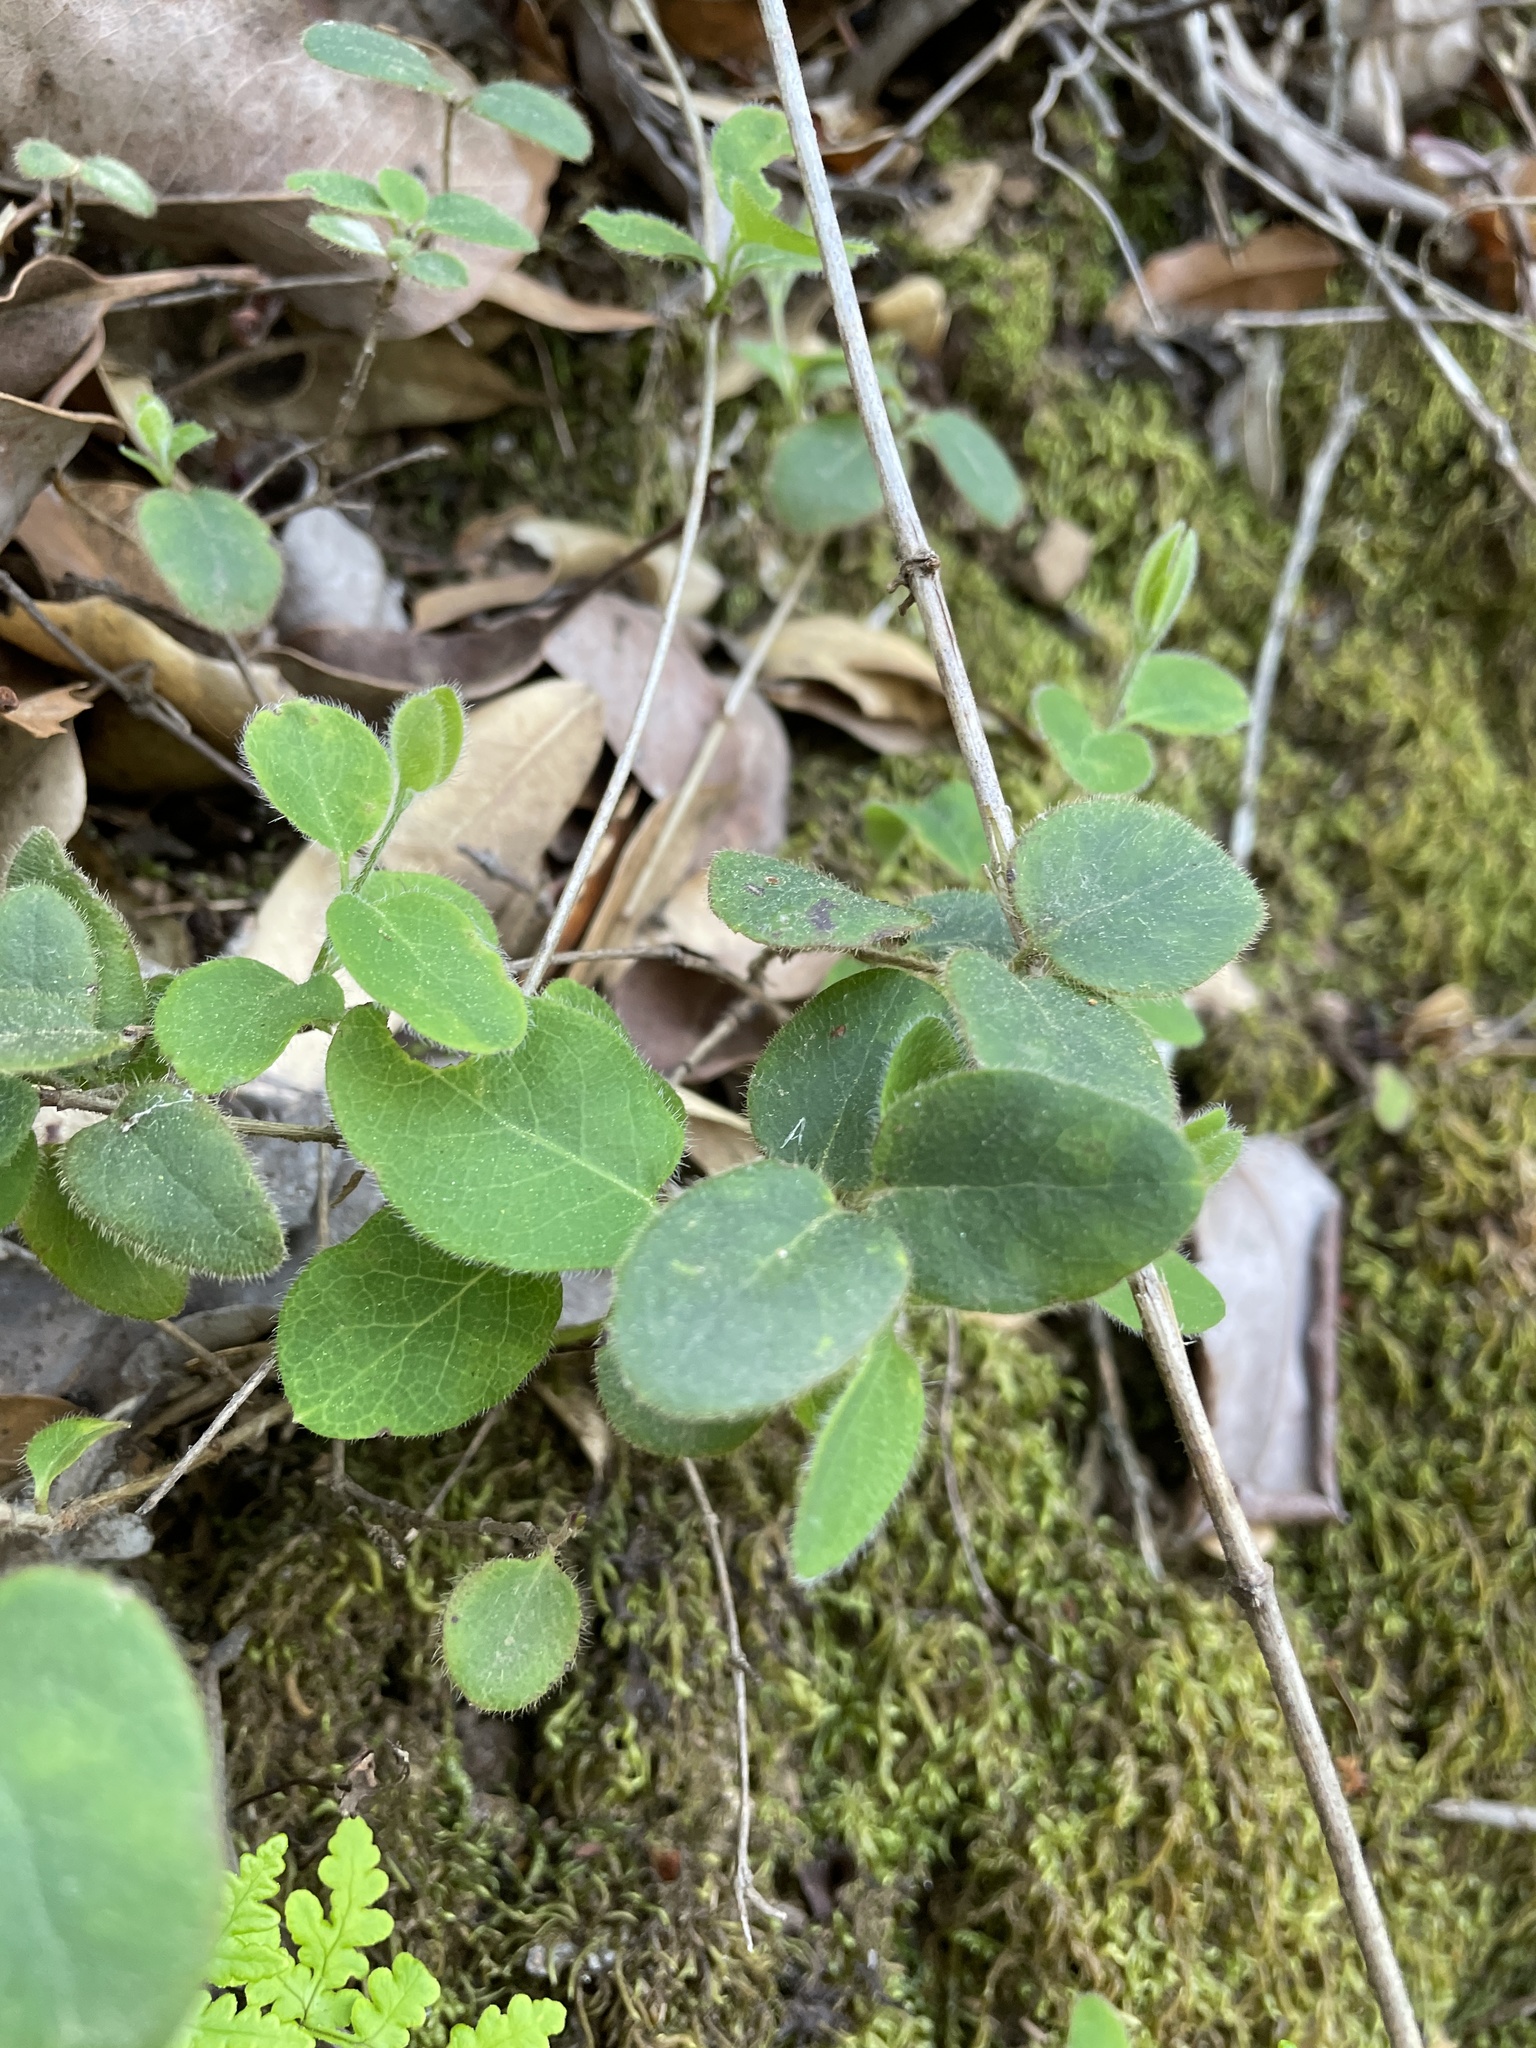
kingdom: Plantae
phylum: Tracheophyta
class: Magnoliopsida
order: Dipsacales
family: Caprifoliaceae
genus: Lonicera
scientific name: Lonicera hispidula
